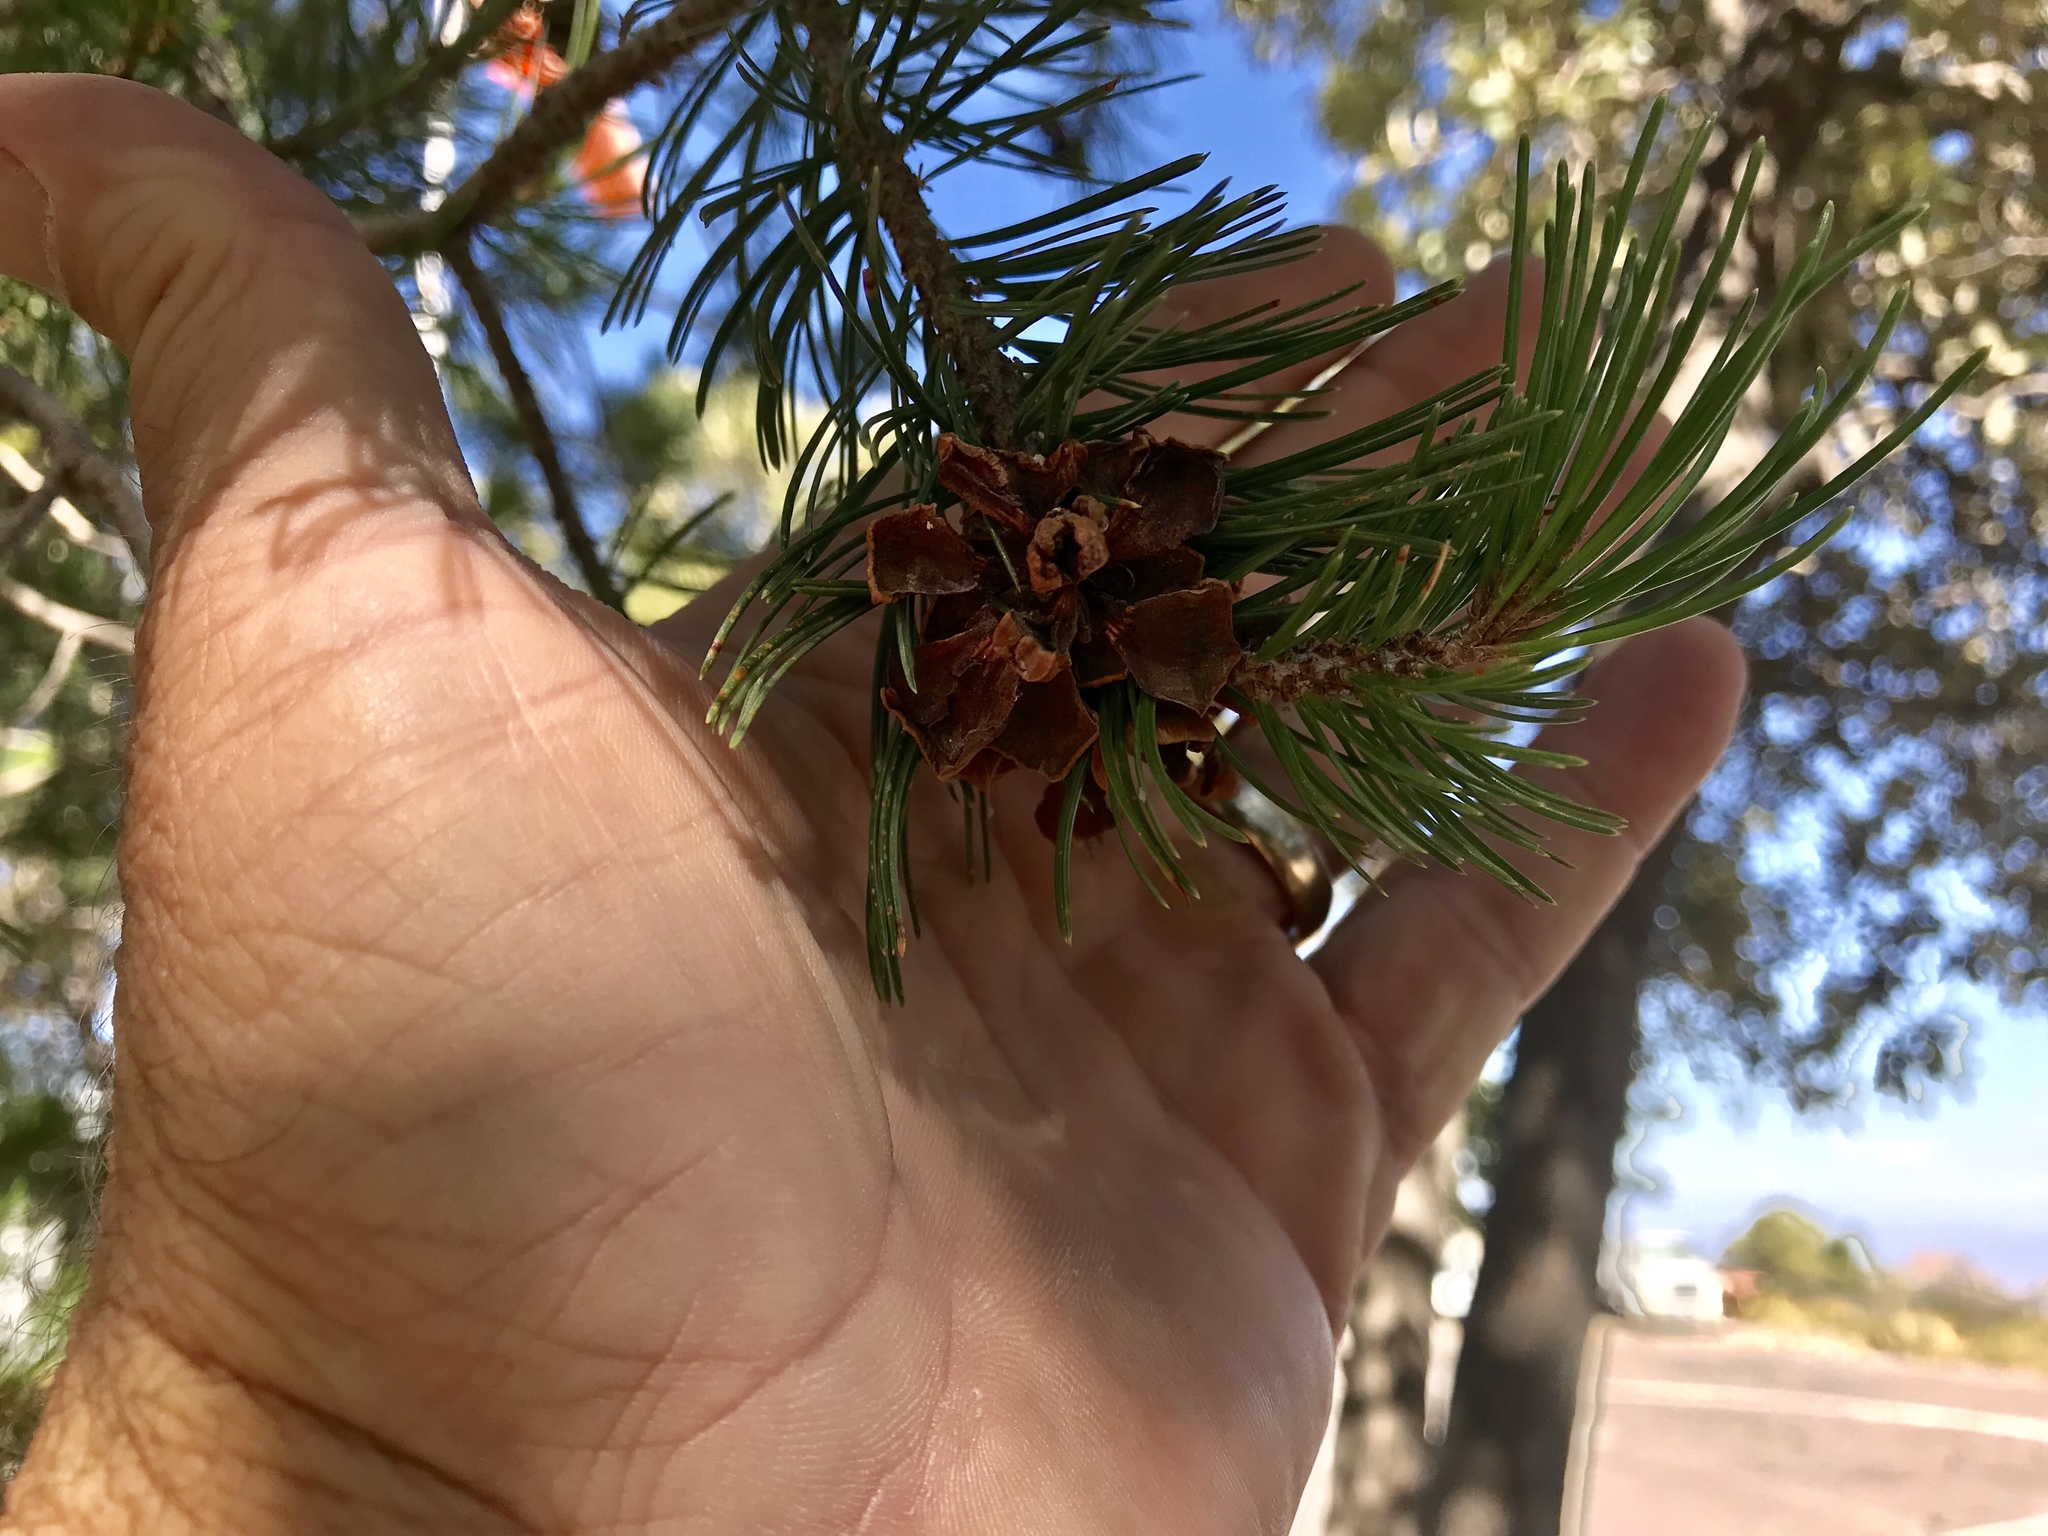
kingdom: Plantae
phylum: Tracheophyta
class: Pinopsida
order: Pinales
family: Pinaceae
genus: Pinus
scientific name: Pinus discolor
